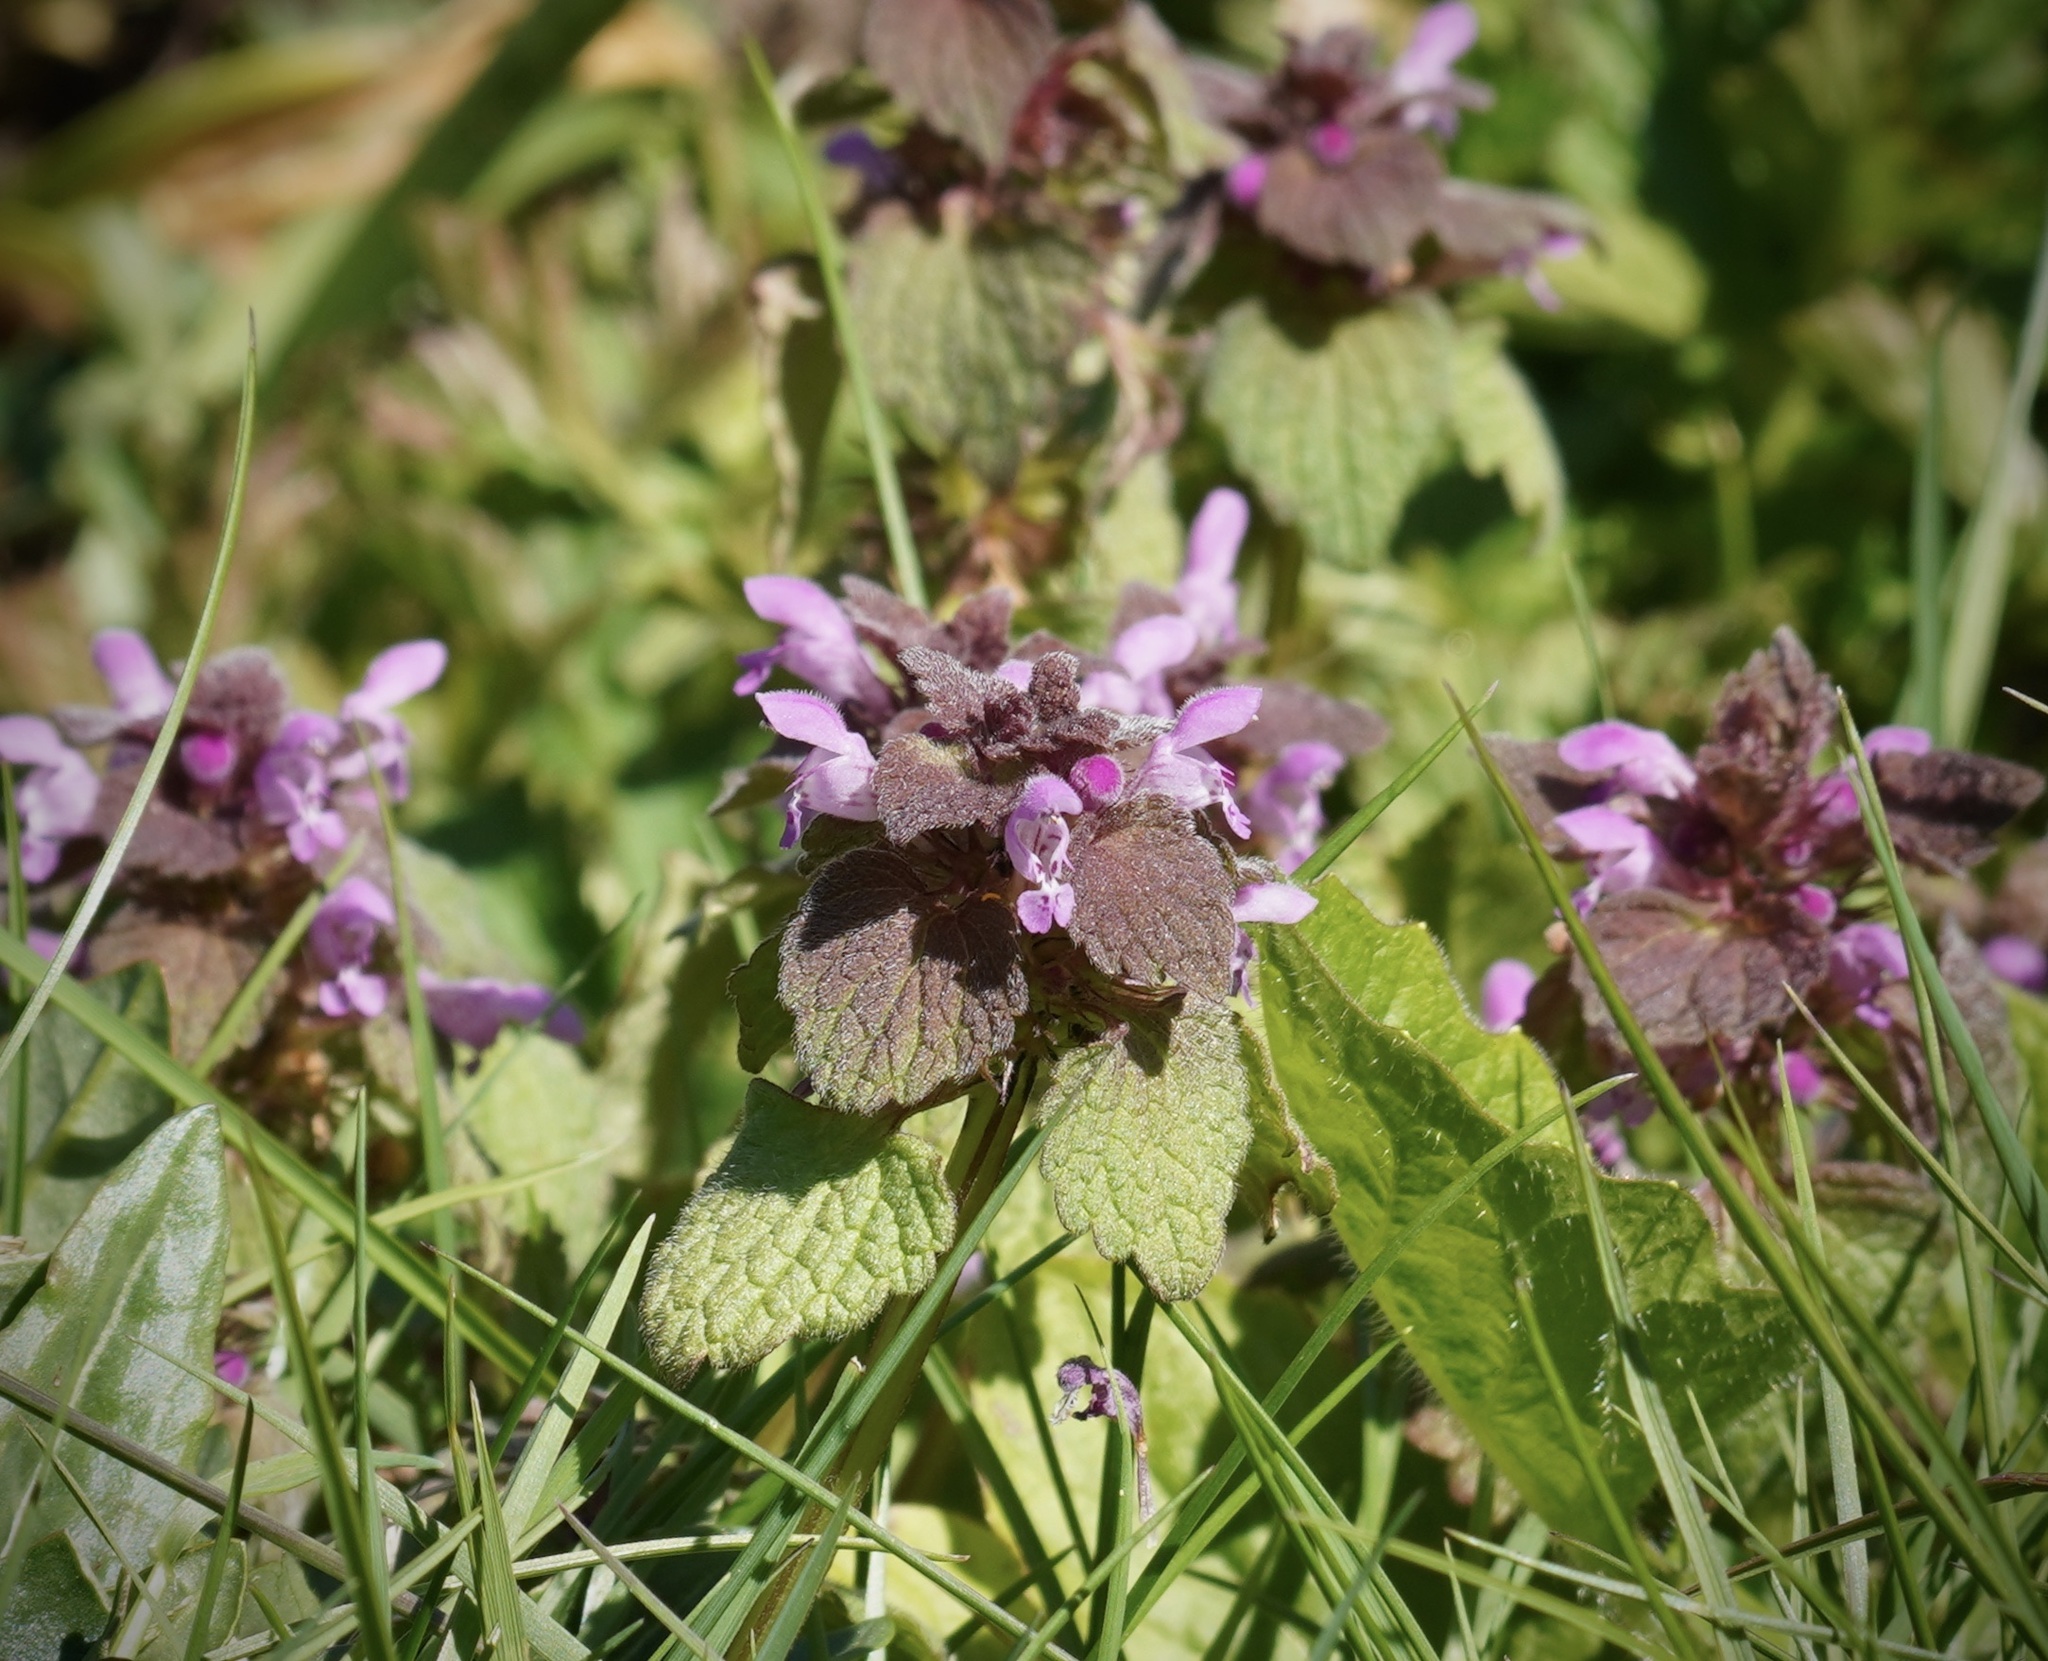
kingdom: Plantae
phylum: Tracheophyta
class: Magnoliopsida
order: Lamiales
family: Lamiaceae
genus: Lamium
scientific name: Lamium purpureum
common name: Red dead-nettle
